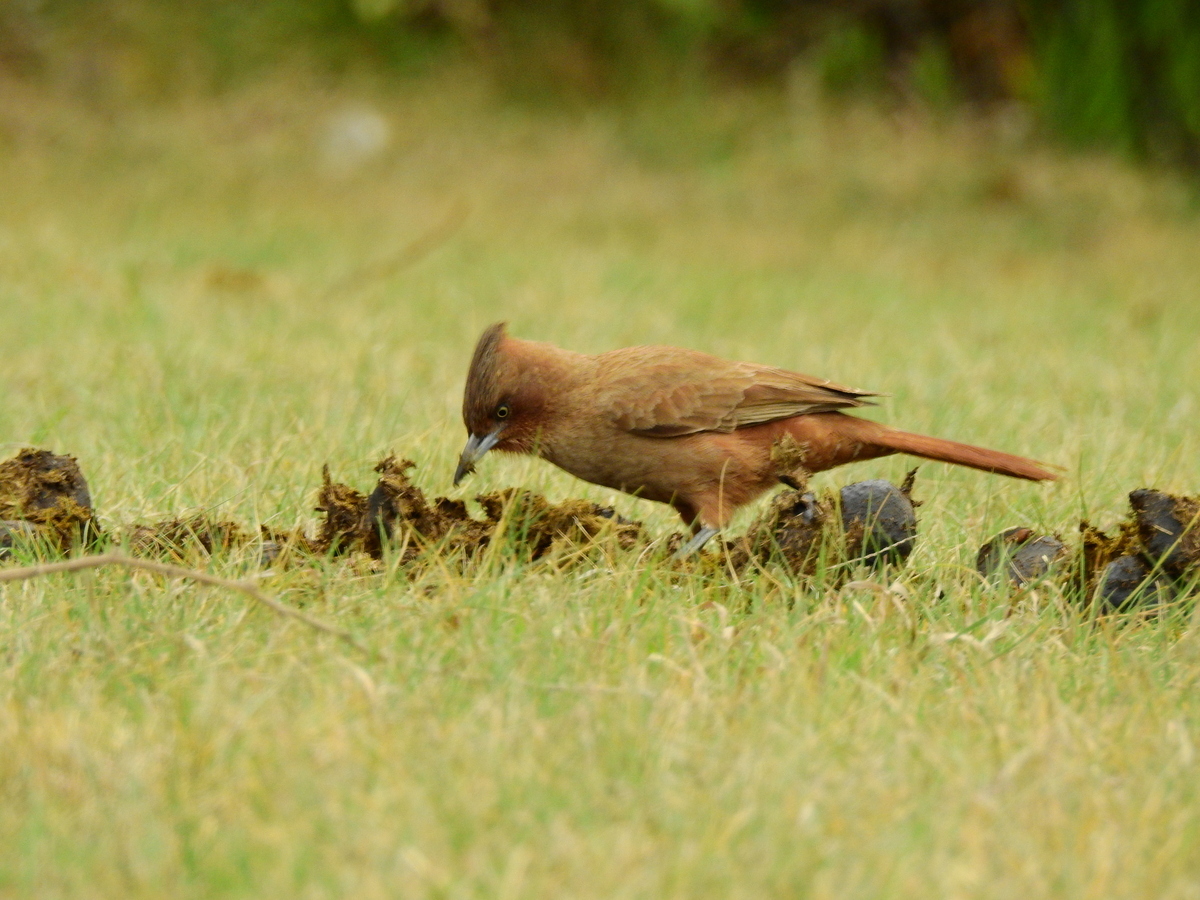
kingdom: Animalia
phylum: Chordata
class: Aves
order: Passeriformes
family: Furnariidae
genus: Pseudoseisura
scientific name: Pseudoseisura lophotes
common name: Brown cacholote
